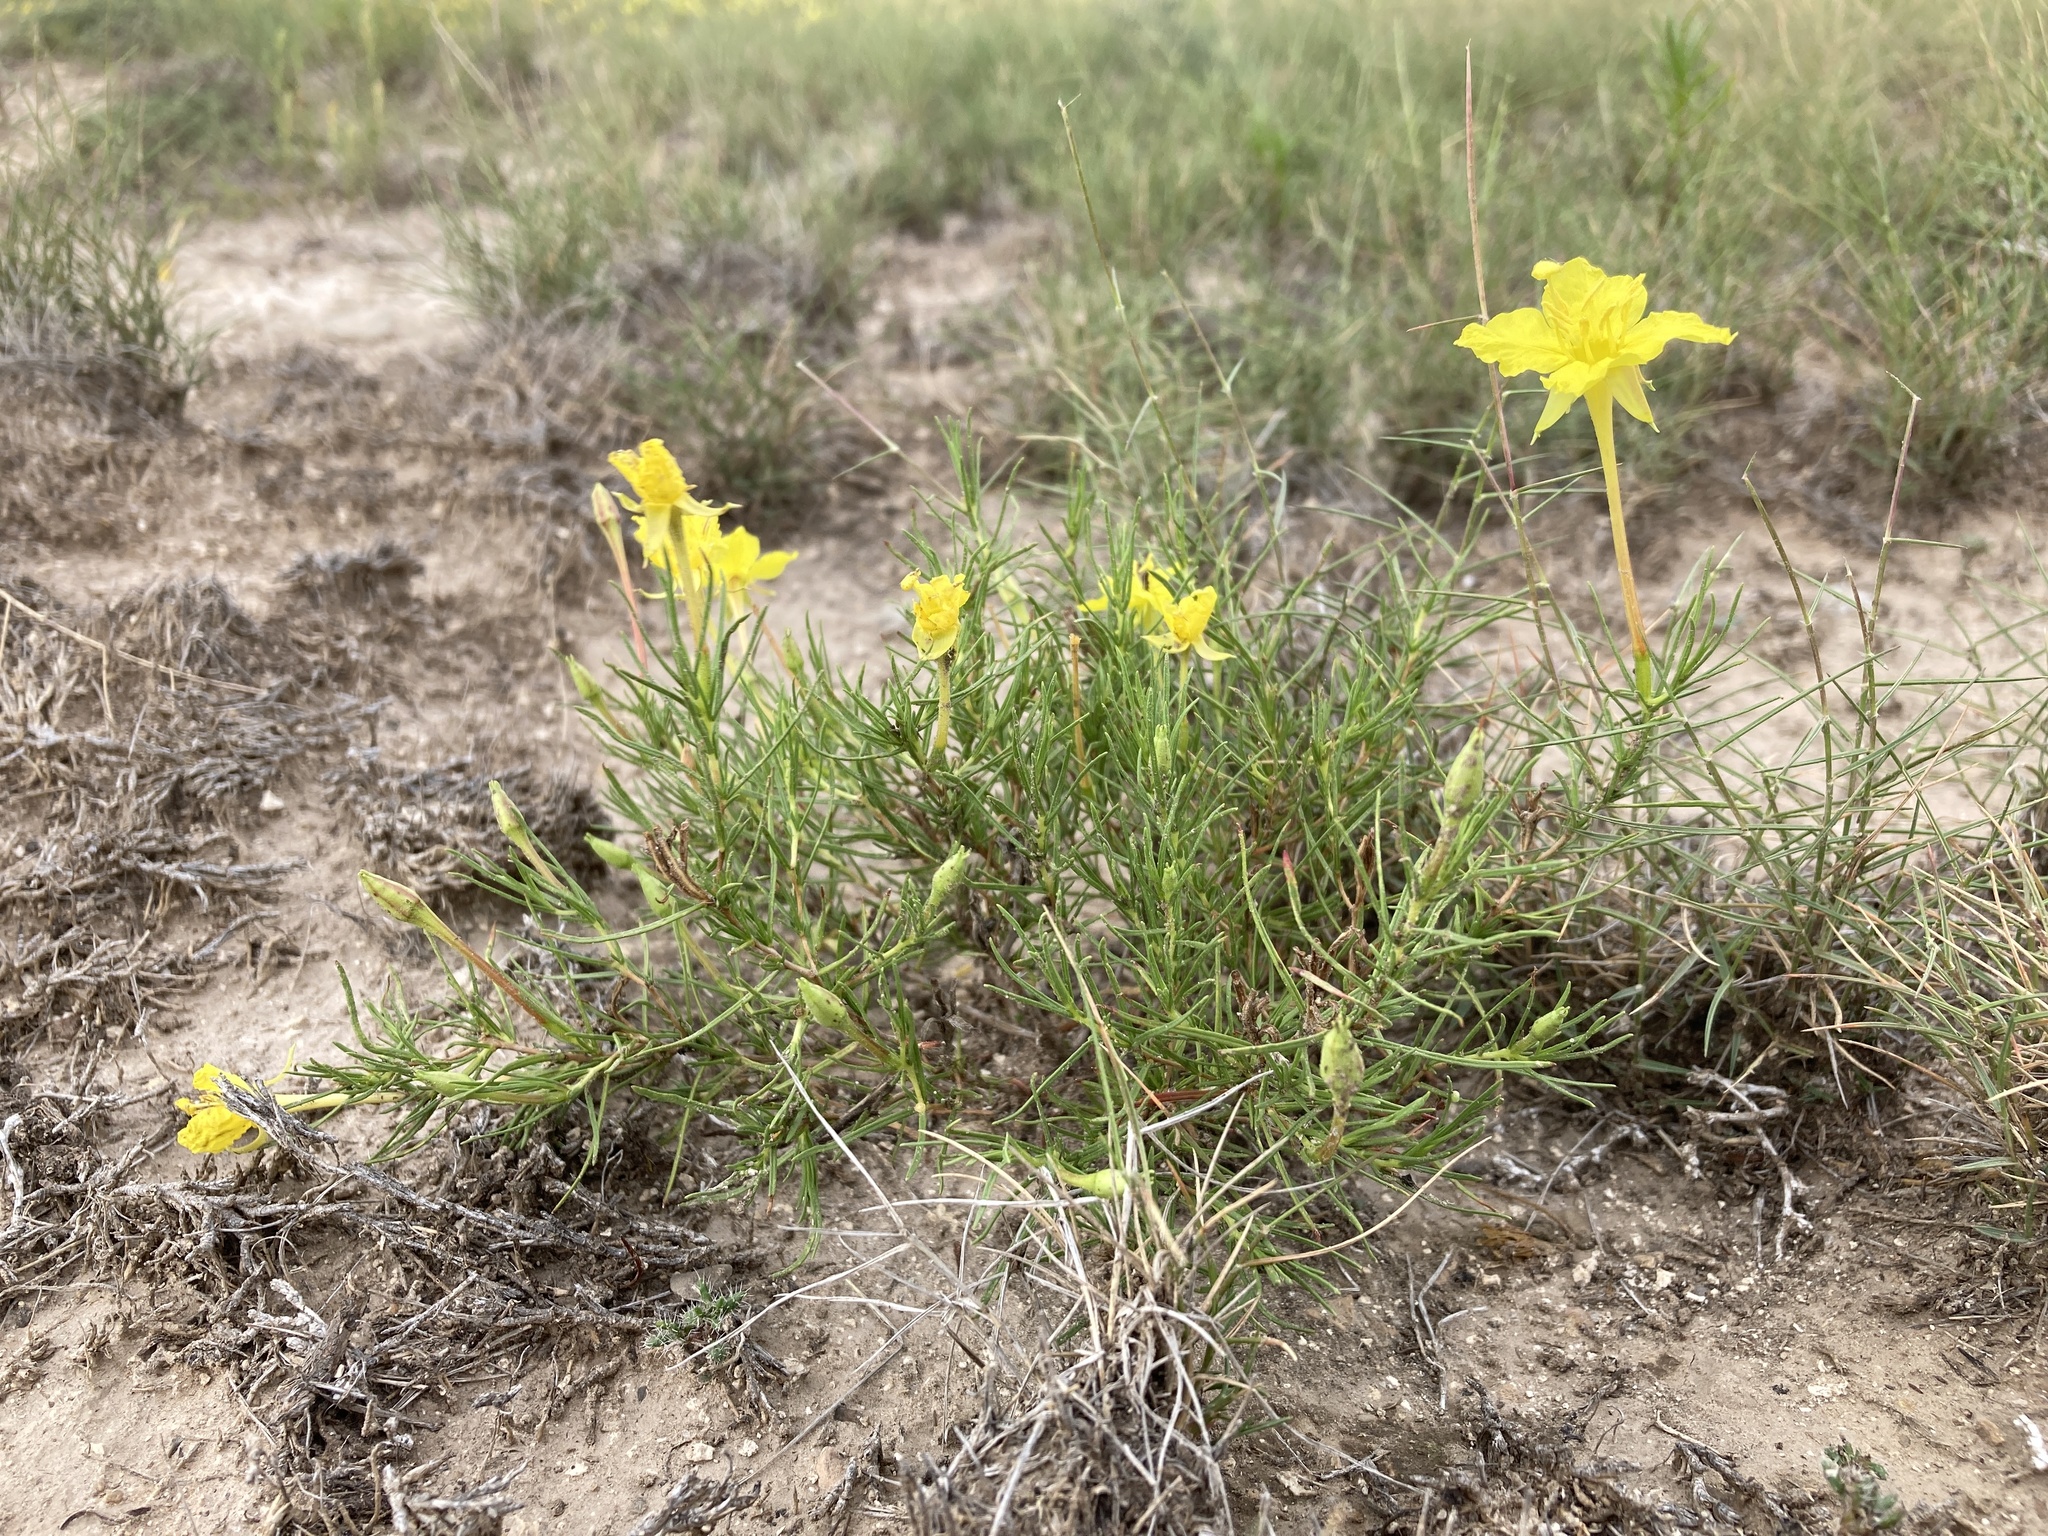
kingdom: Plantae
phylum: Tracheophyta
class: Magnoliopsida
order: Myrtales
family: Onagraceae
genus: Oenothera
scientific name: Oenothera hartwegii
